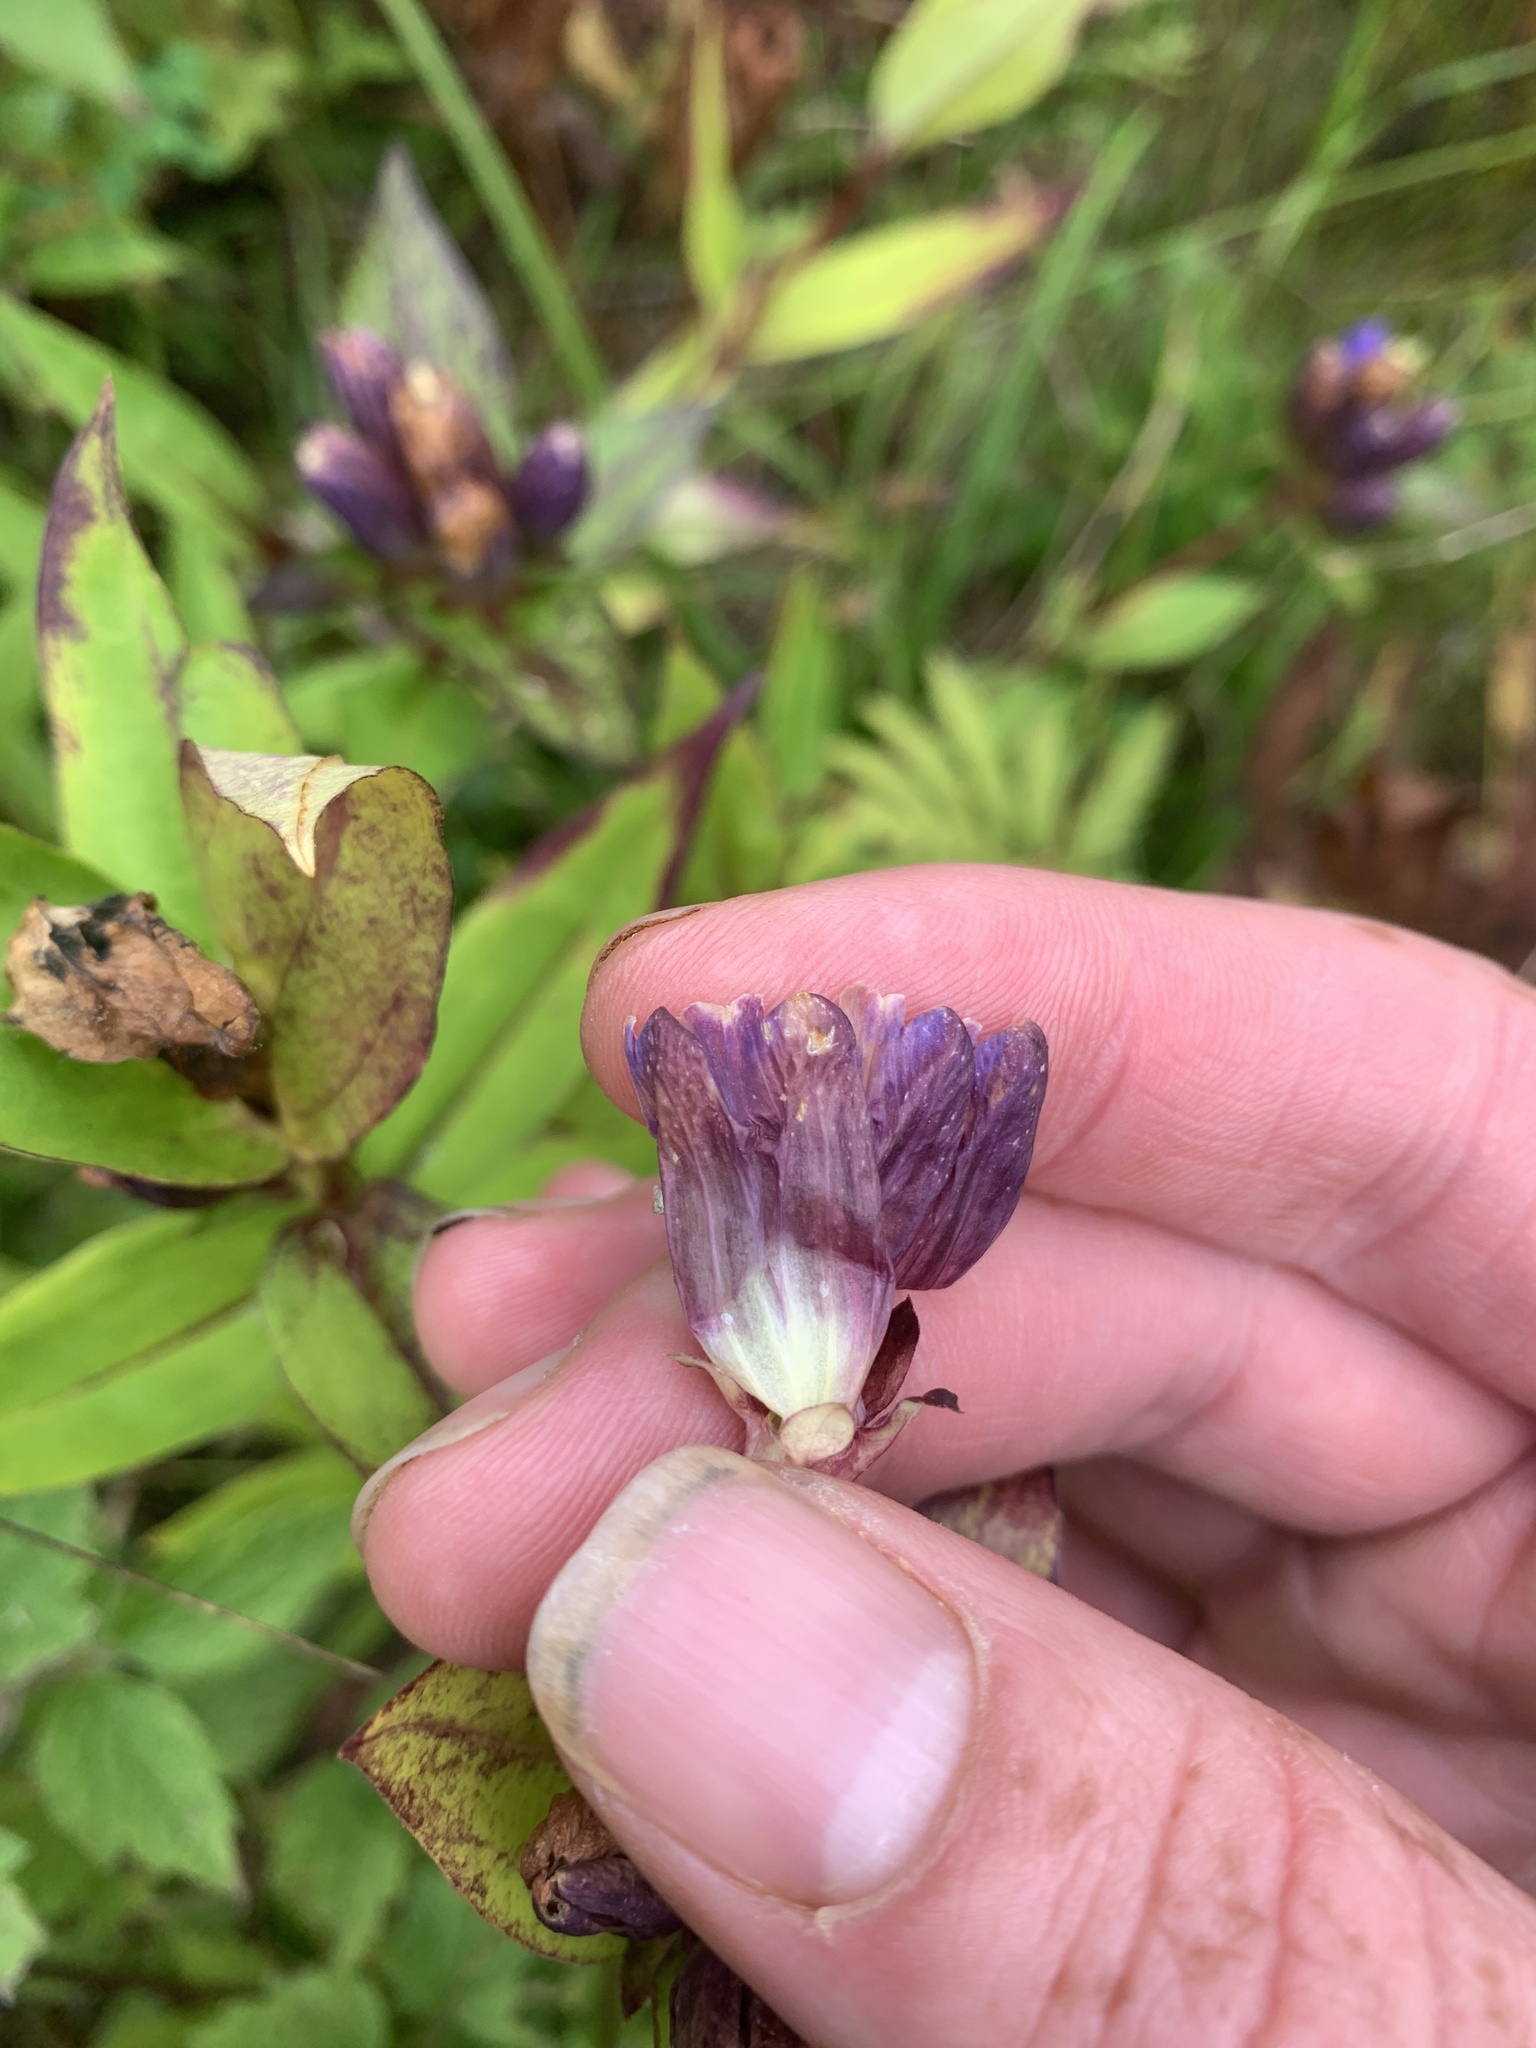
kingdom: Plantae
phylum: Tracheophyta
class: Magnoliopsida
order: Gentianales
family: Gentianaceae
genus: Gentiana
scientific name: Gentiana clausa
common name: Blind gentian
